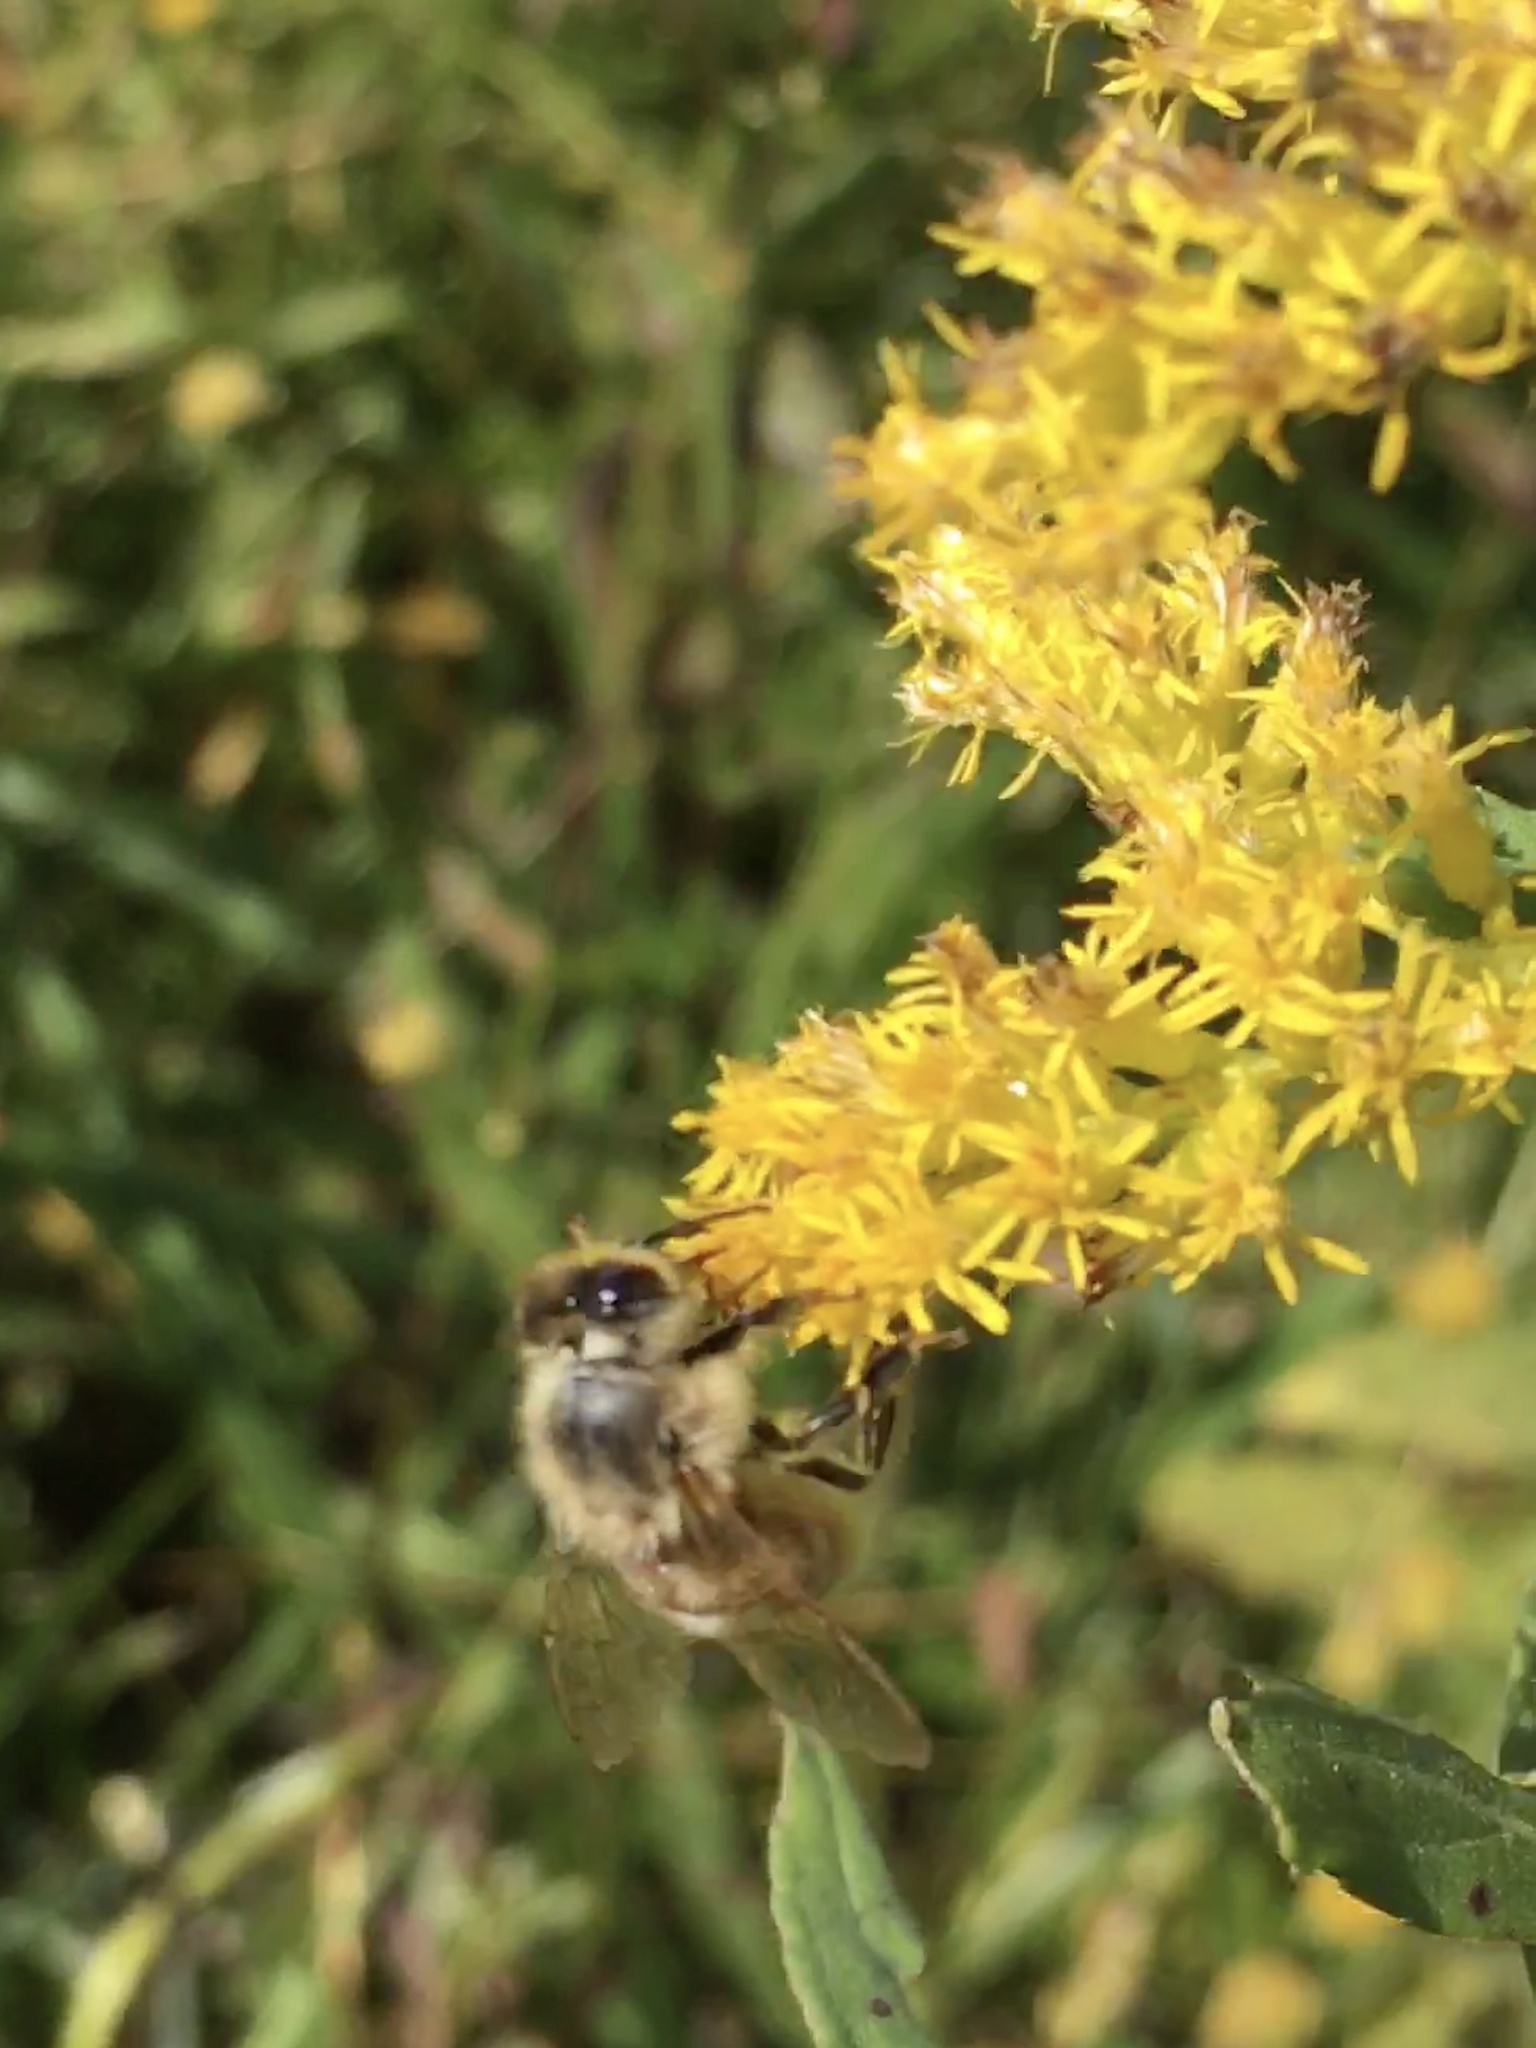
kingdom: Animalia
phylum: Arthropoda
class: Insecta
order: Hymenoptera
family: Apidae
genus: Apis
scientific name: Apis mellifera
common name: Honey bee
